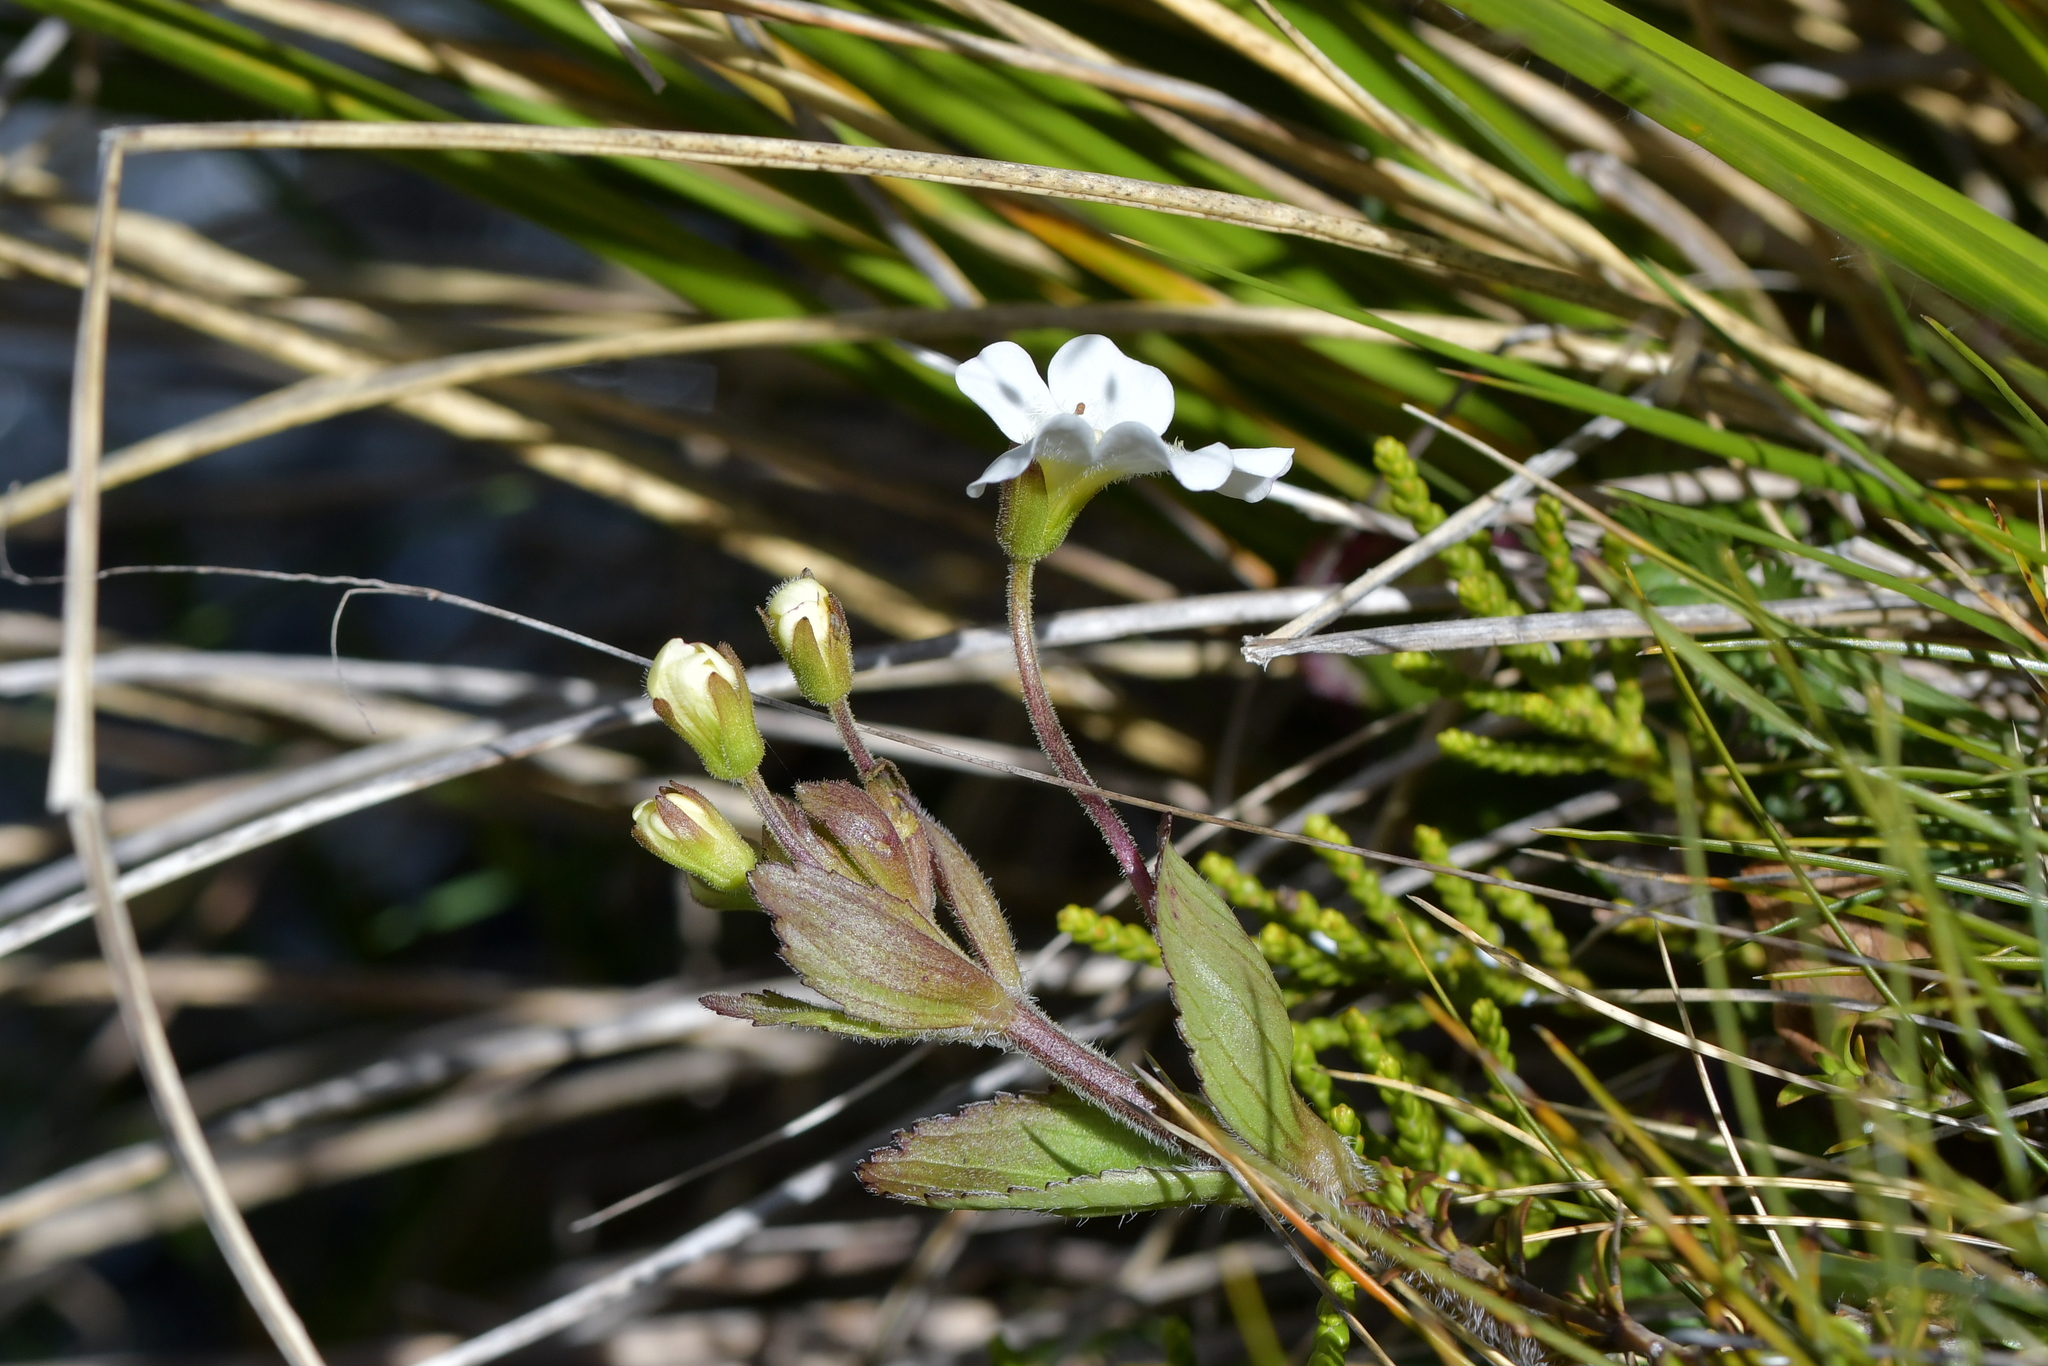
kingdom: Plantae
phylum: Tracheophyta
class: Magnoliopsida
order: Lamiales
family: Plantaginaceae
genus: Ourisia
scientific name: Ourisia macrophylla
